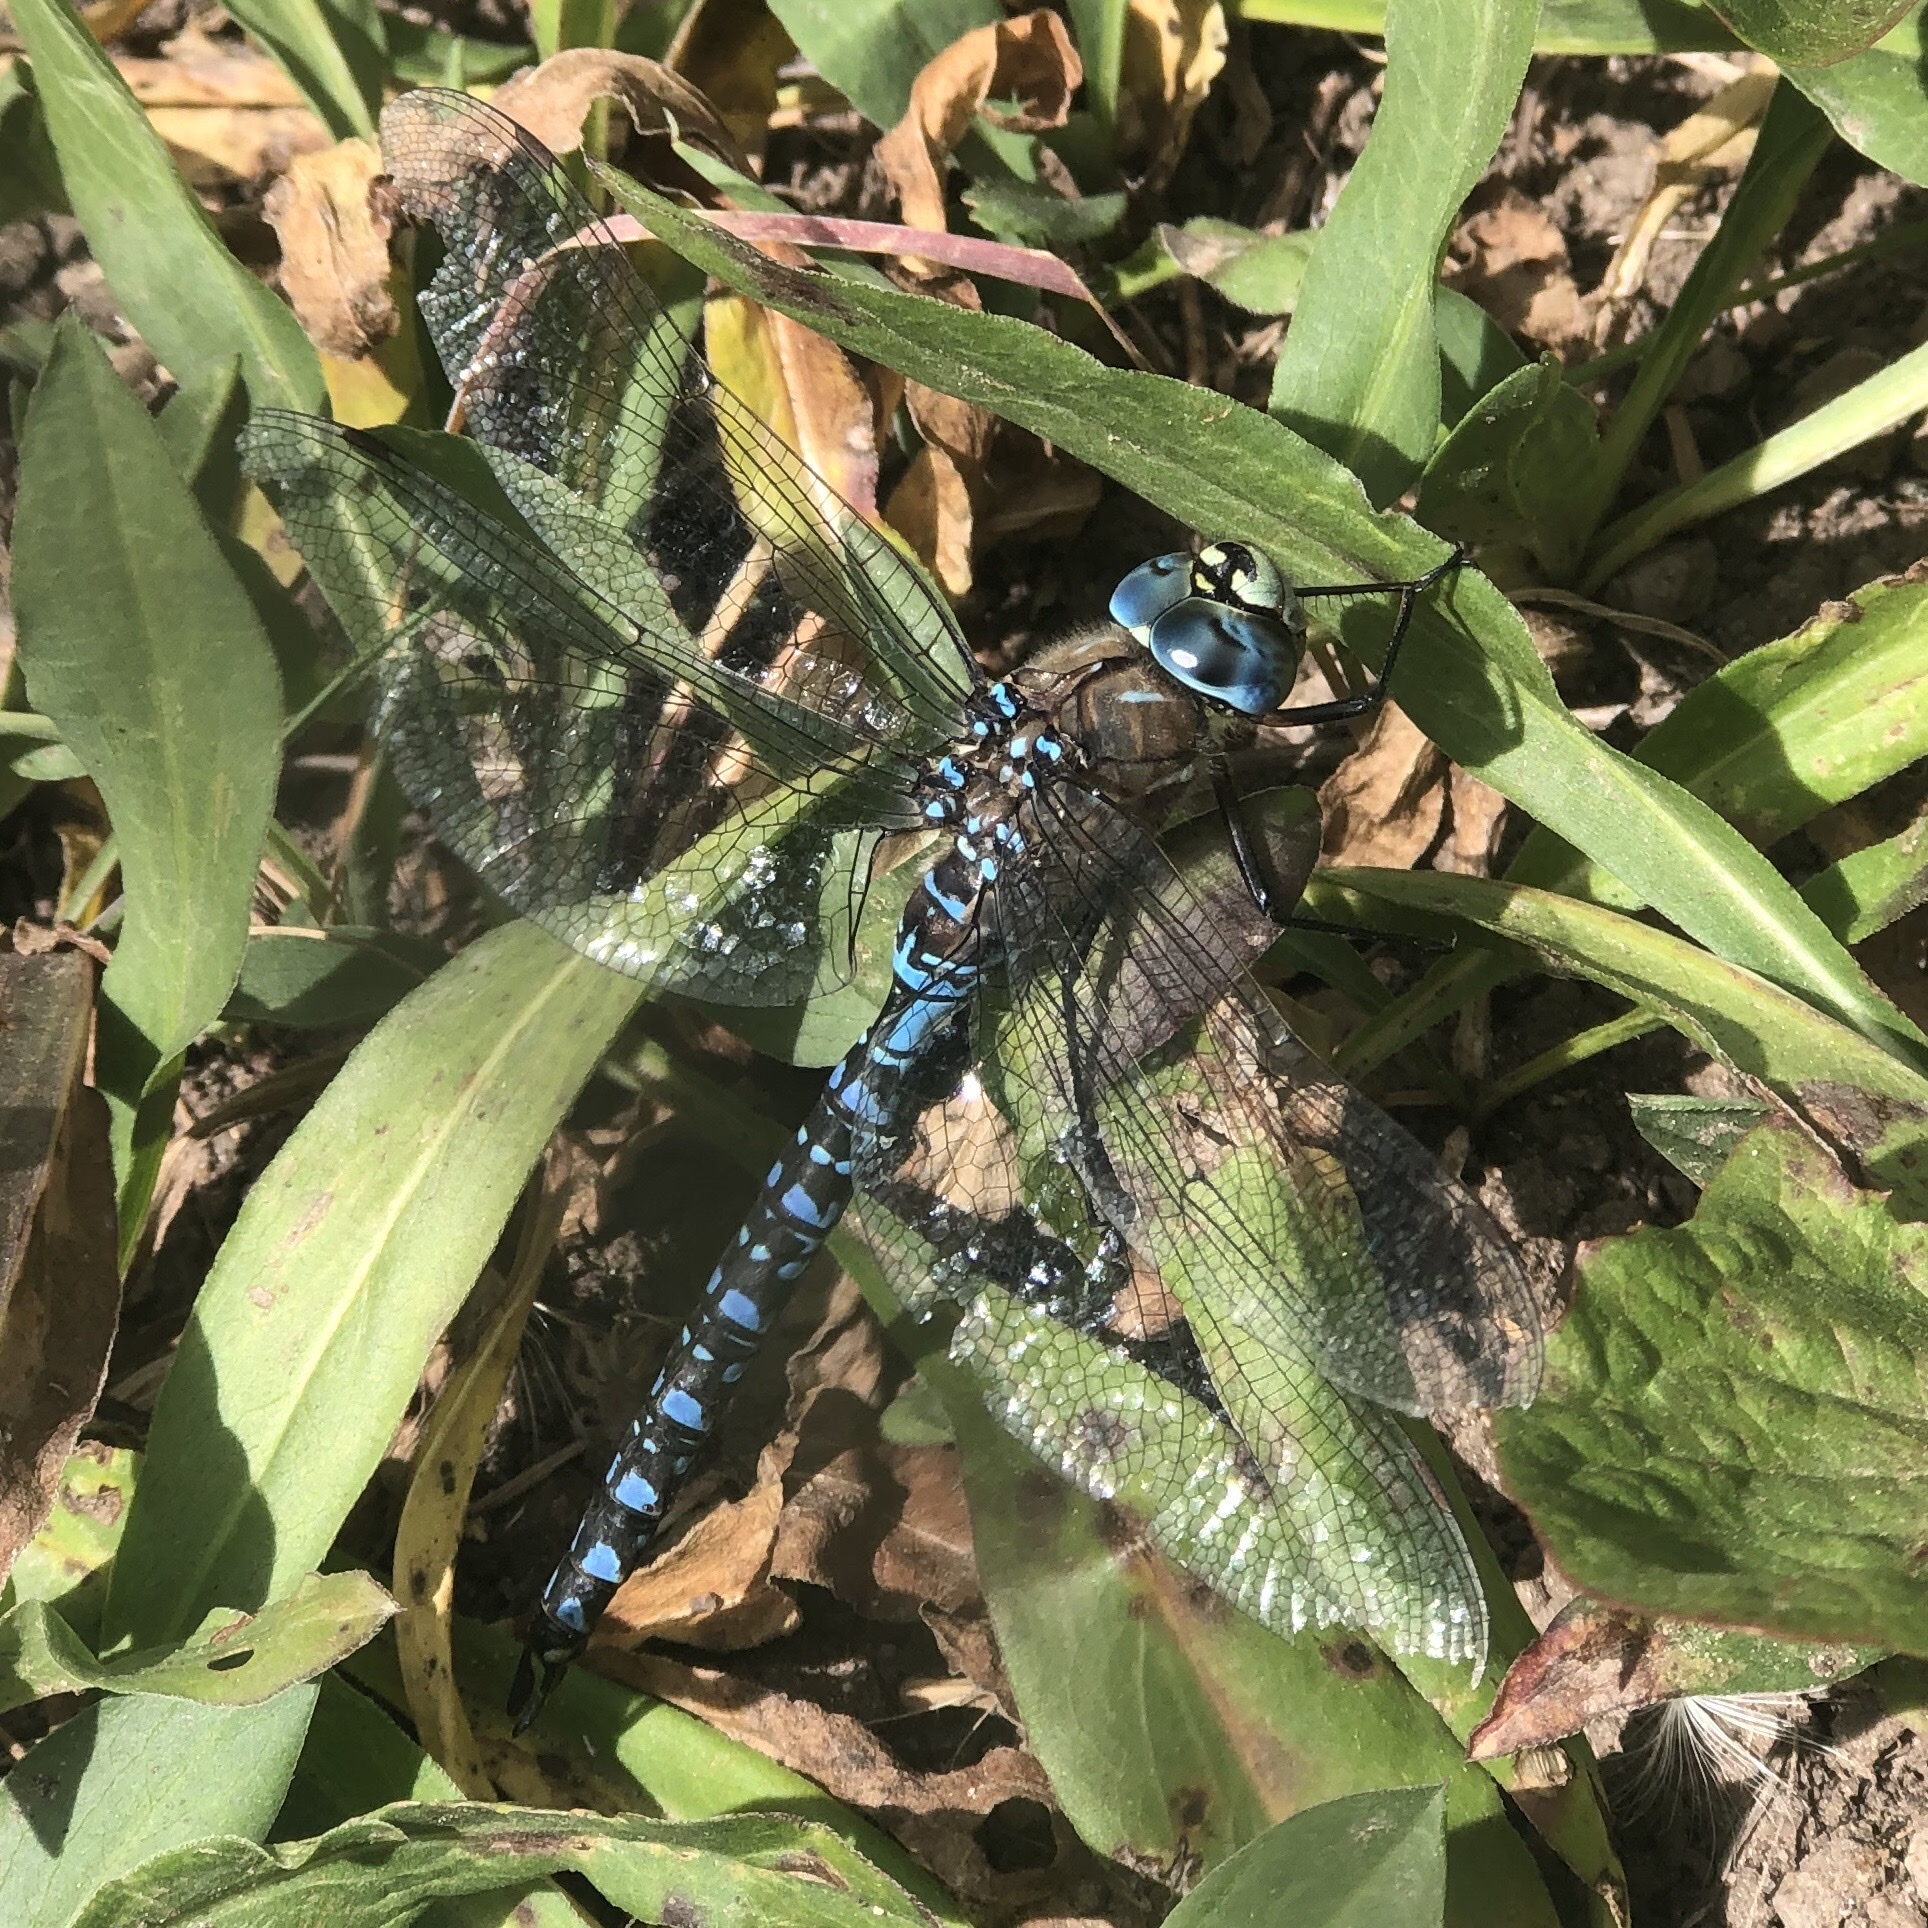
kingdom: Animalia
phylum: Arthropoda
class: Insecta
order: Odonata
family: Aeshnidae
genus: Aeshna
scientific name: Aeshna interrupta
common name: Variable darner
